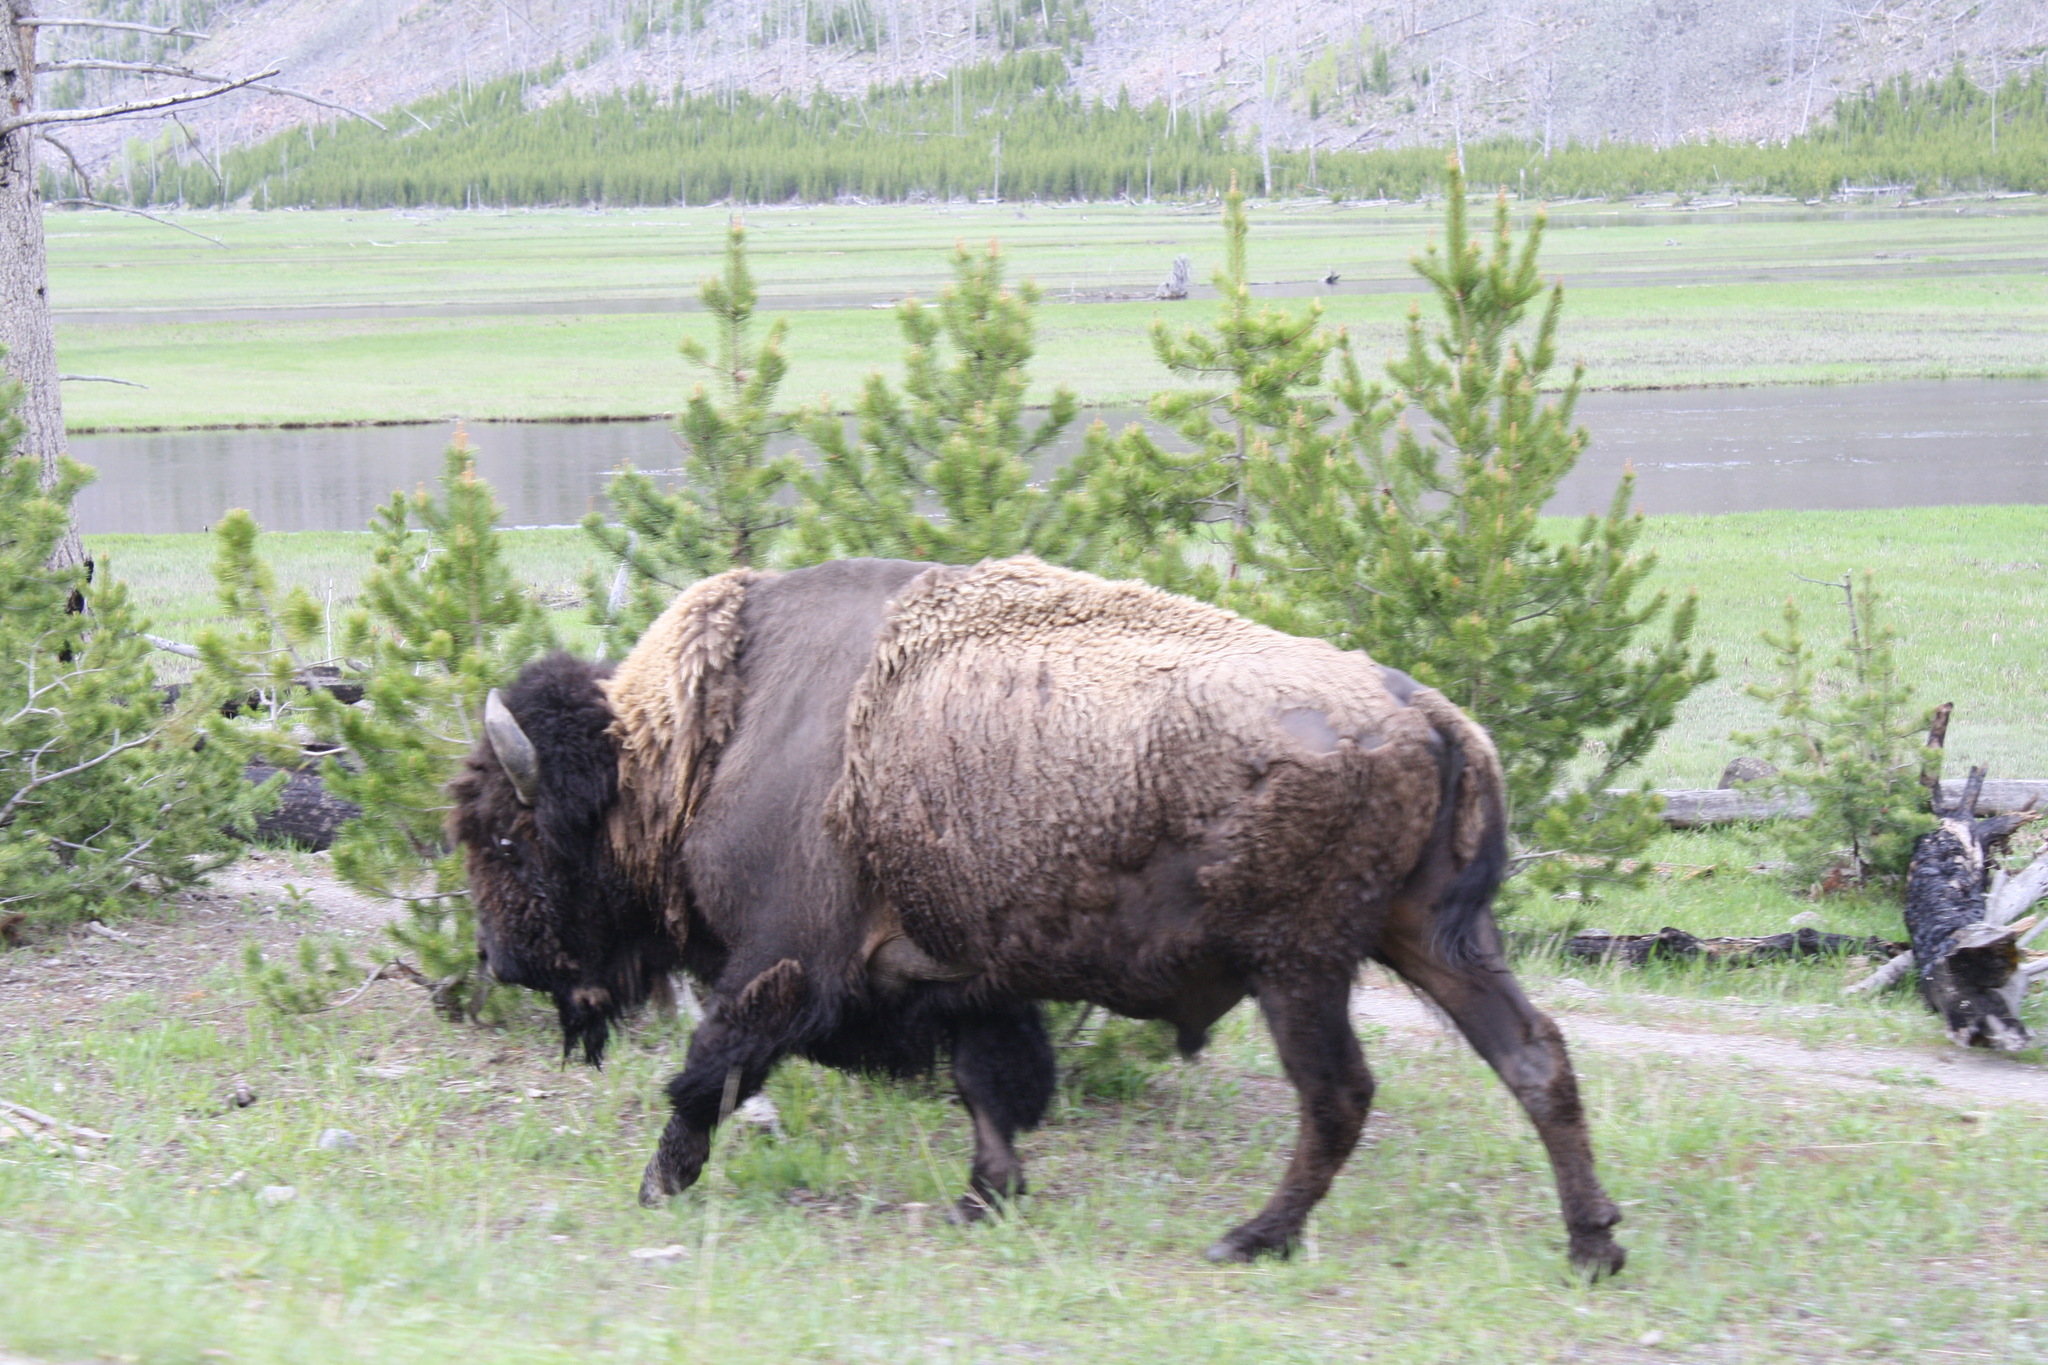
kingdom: Animalia
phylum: Chordata
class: Mammalia
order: Artiodactyla
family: Bovidae
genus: Bison
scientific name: Bison bison
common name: American bison
